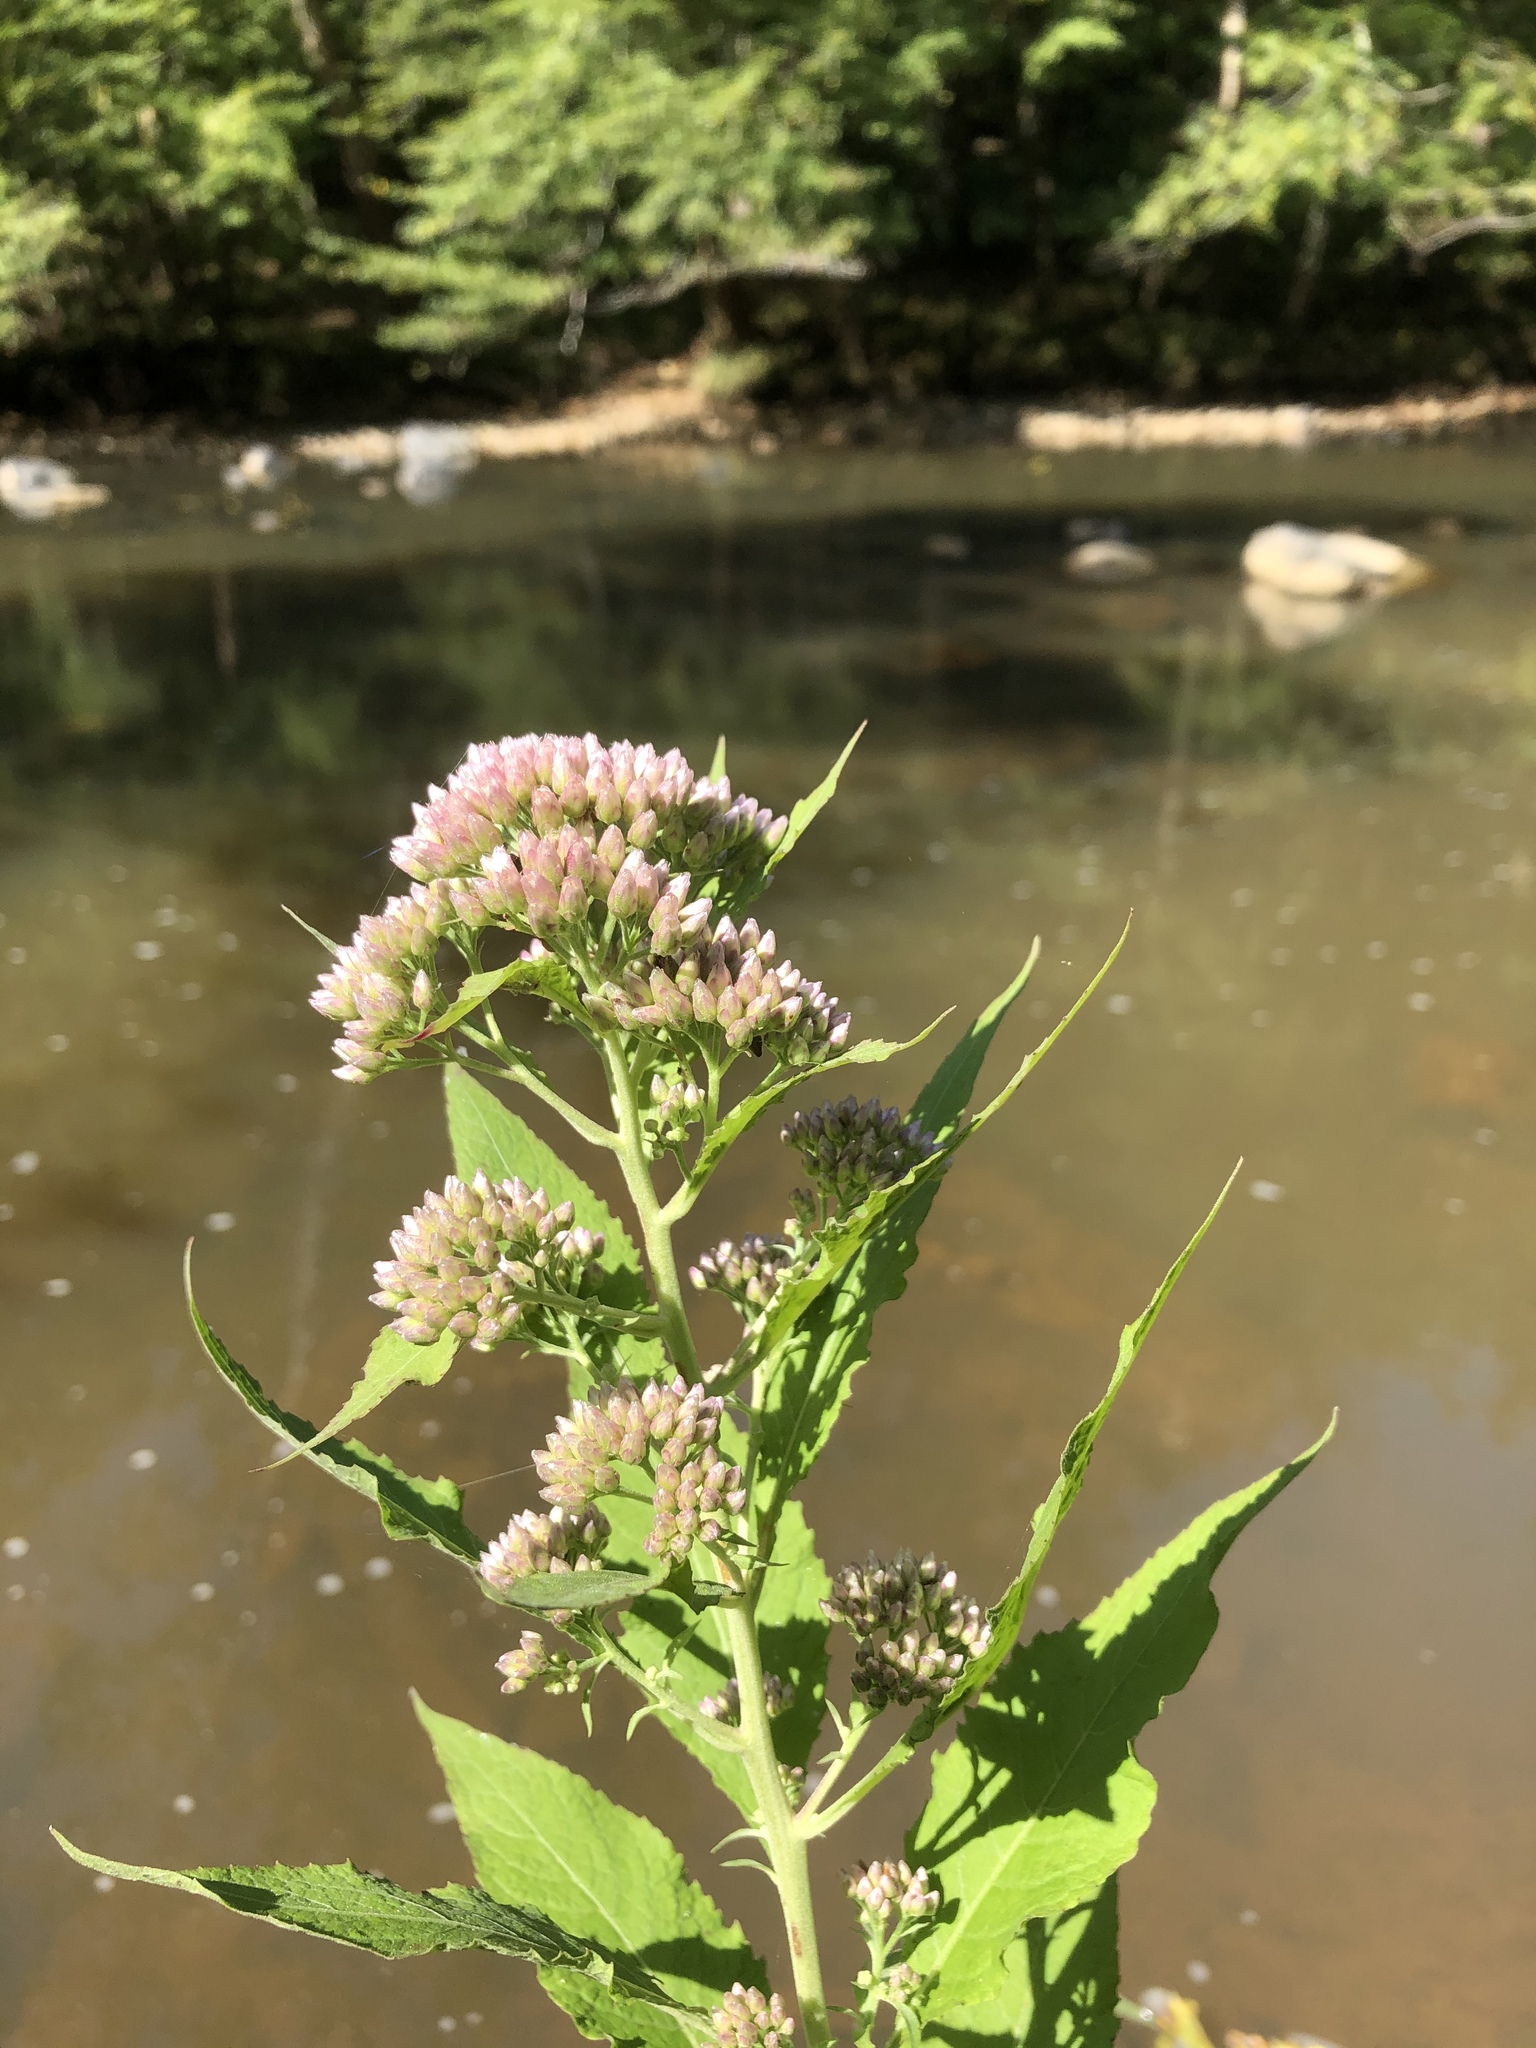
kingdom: Plantae
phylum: Tracheophyta
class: Magnoliopsida
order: Asterales
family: Asteraceae
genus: Pluchea
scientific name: Pluchea camphorata
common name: Camphor pluchea
